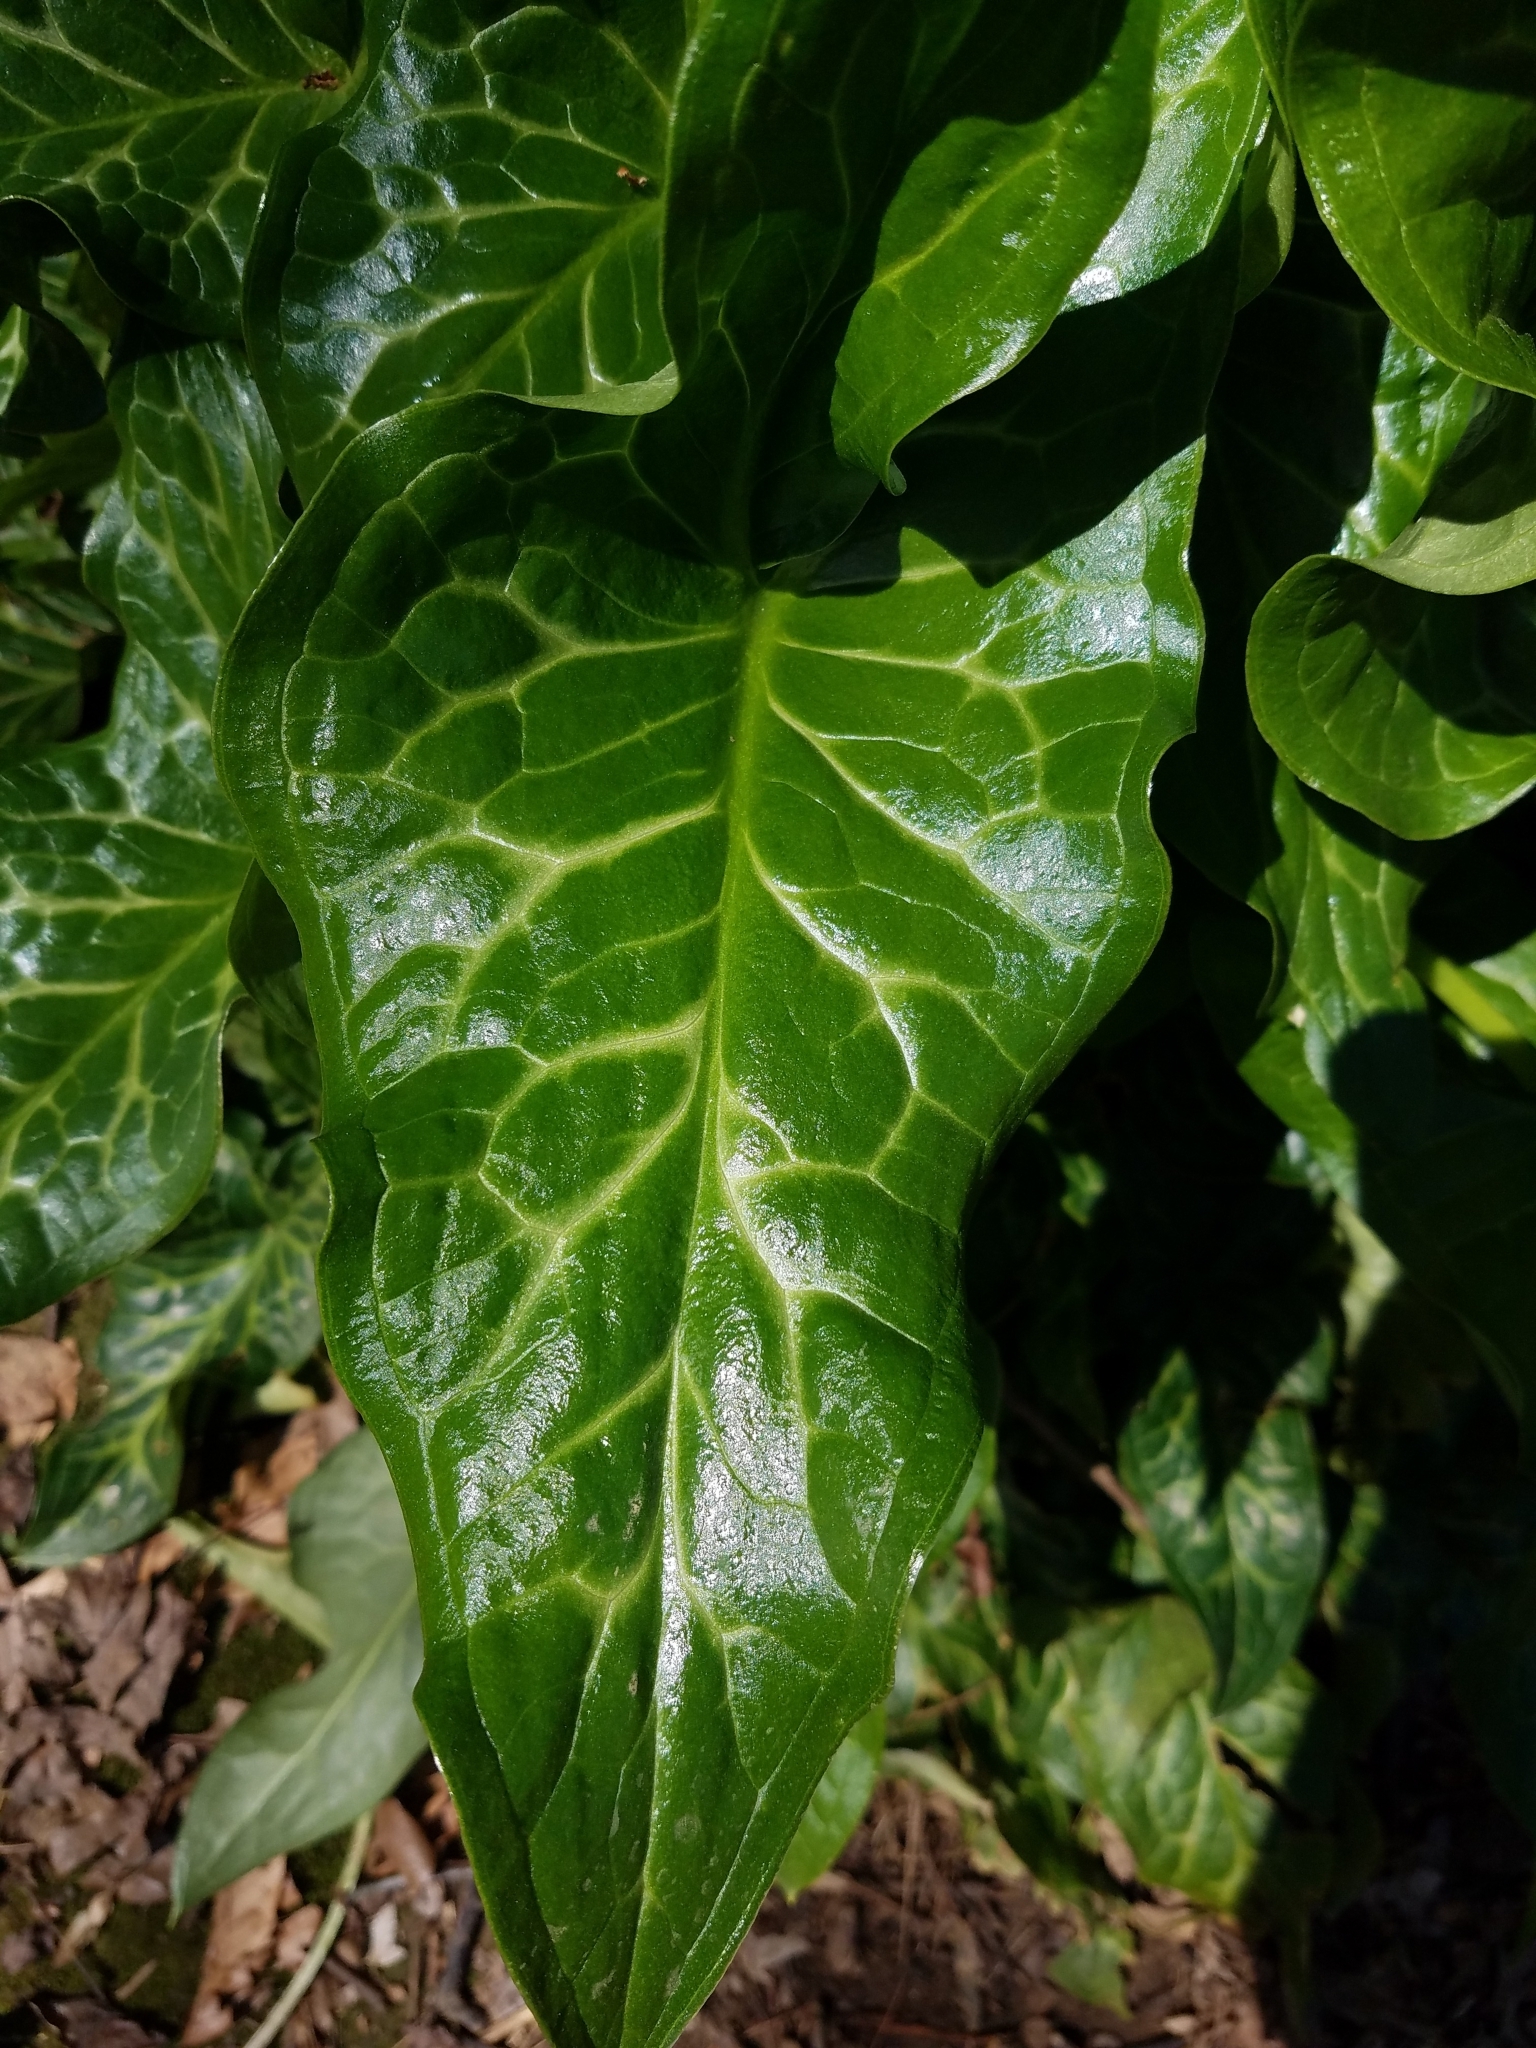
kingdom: Plantae
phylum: Tracheophyta
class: Liliopsida
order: Alismatales
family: Araceae
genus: Arum
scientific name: Arum italicum
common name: Italian lords-and-ladies
